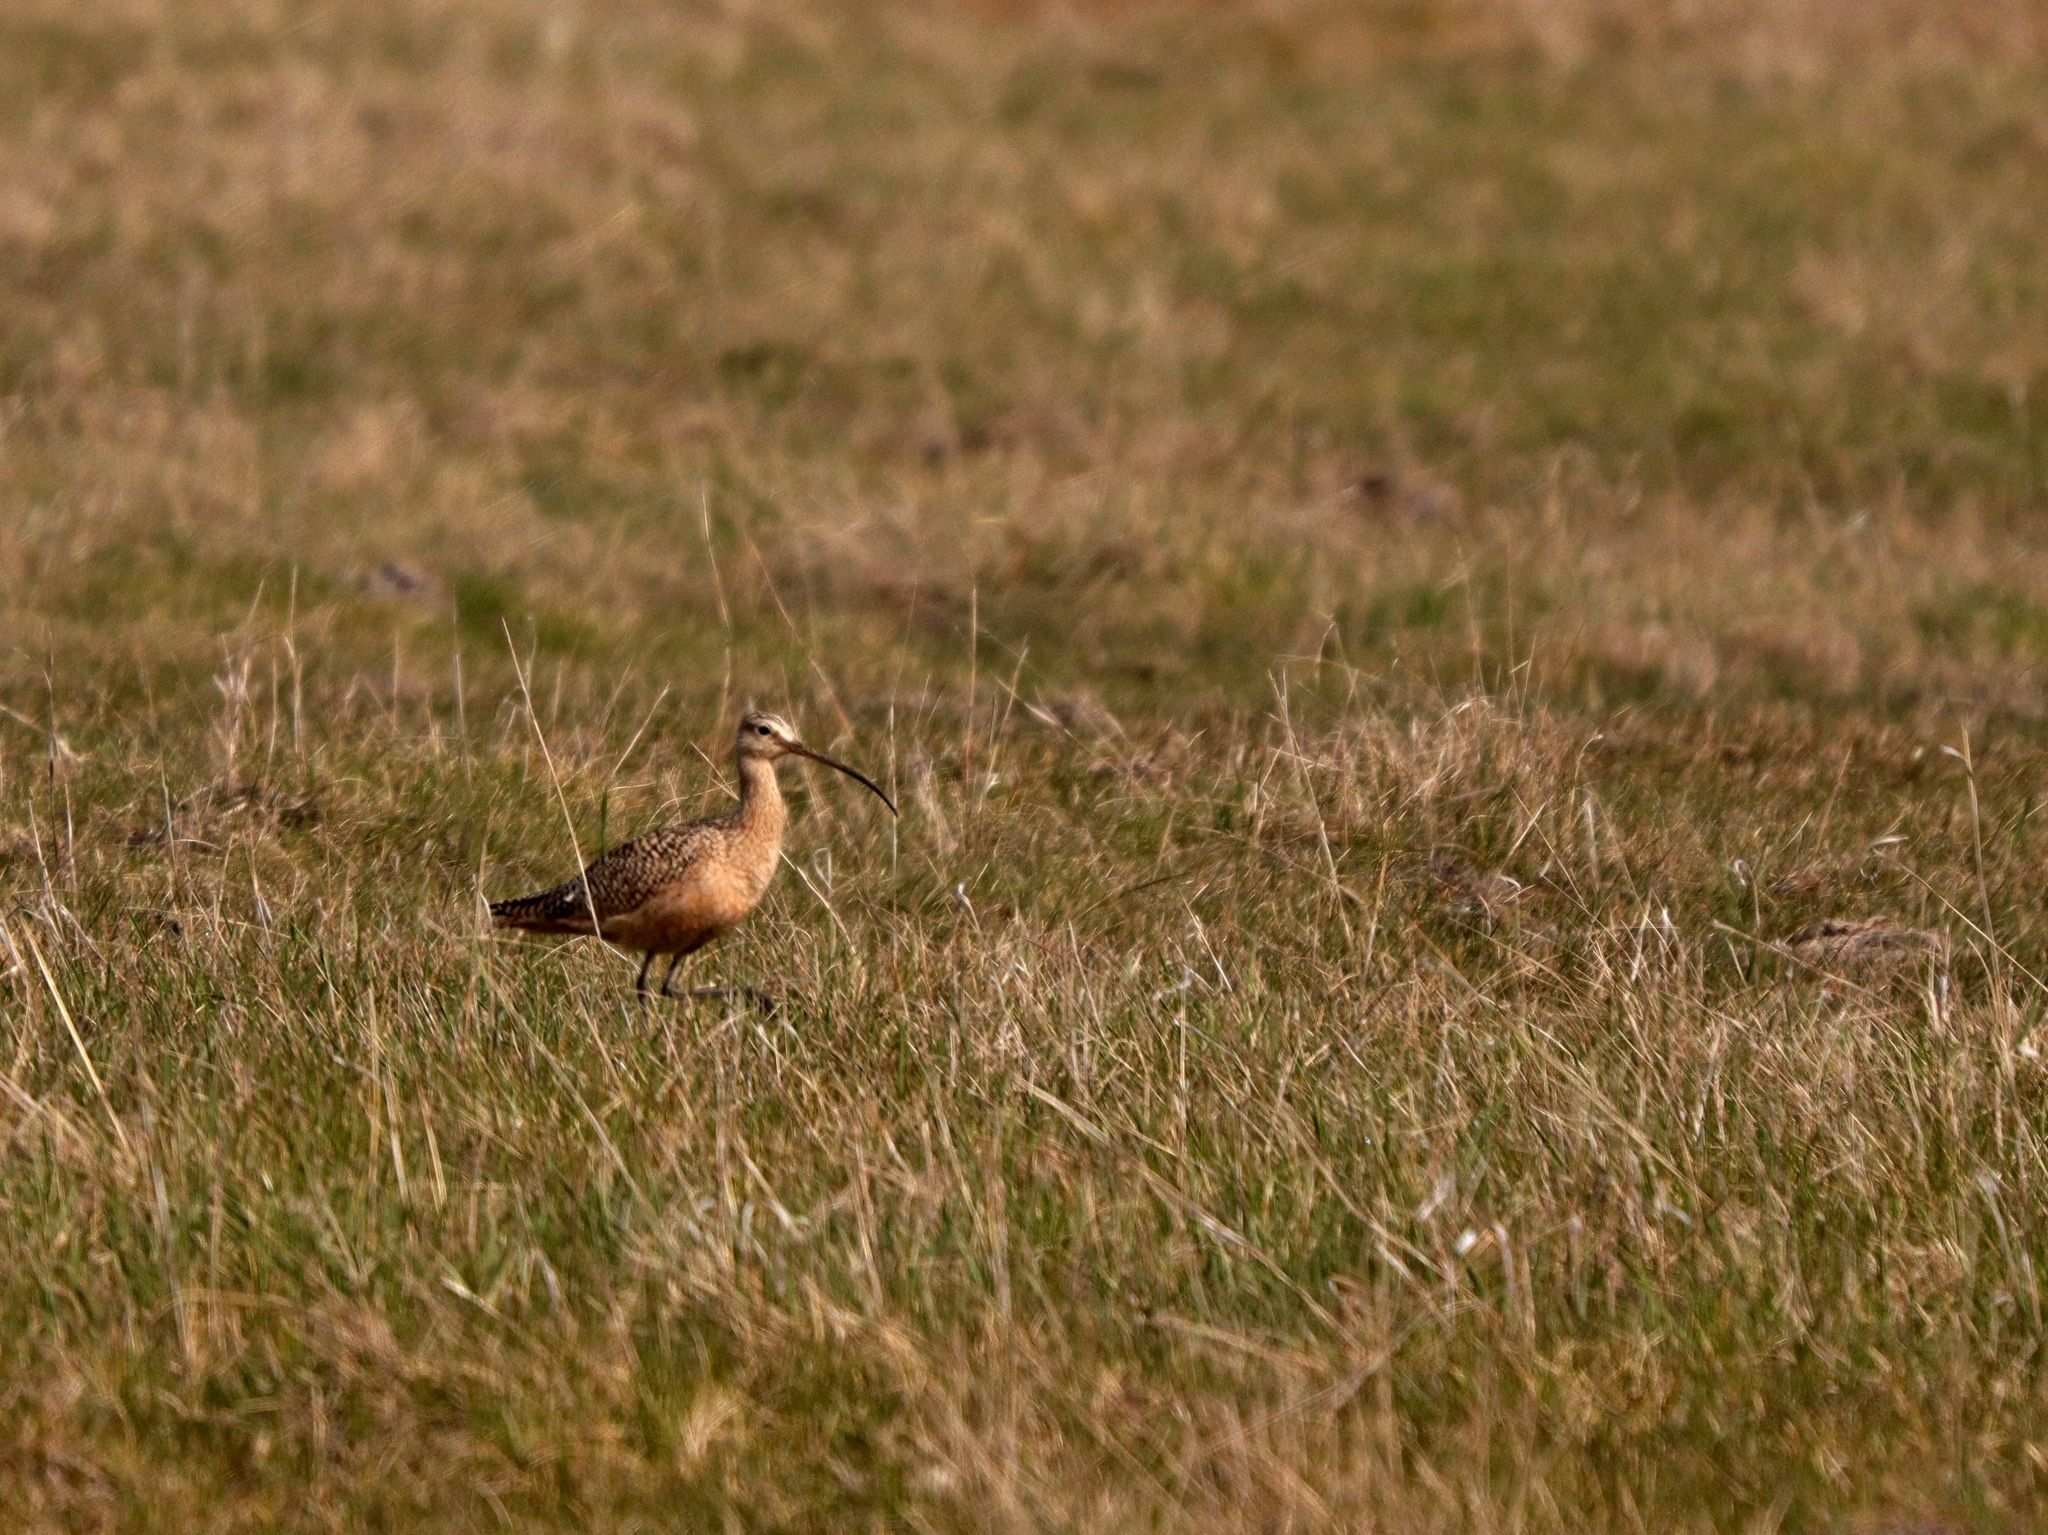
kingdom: Animalia
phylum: Chordata
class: Aves
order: Charadriiformes
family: Scolopacidae
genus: Numenius
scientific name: Numenius americanus
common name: Long-billed curlew
